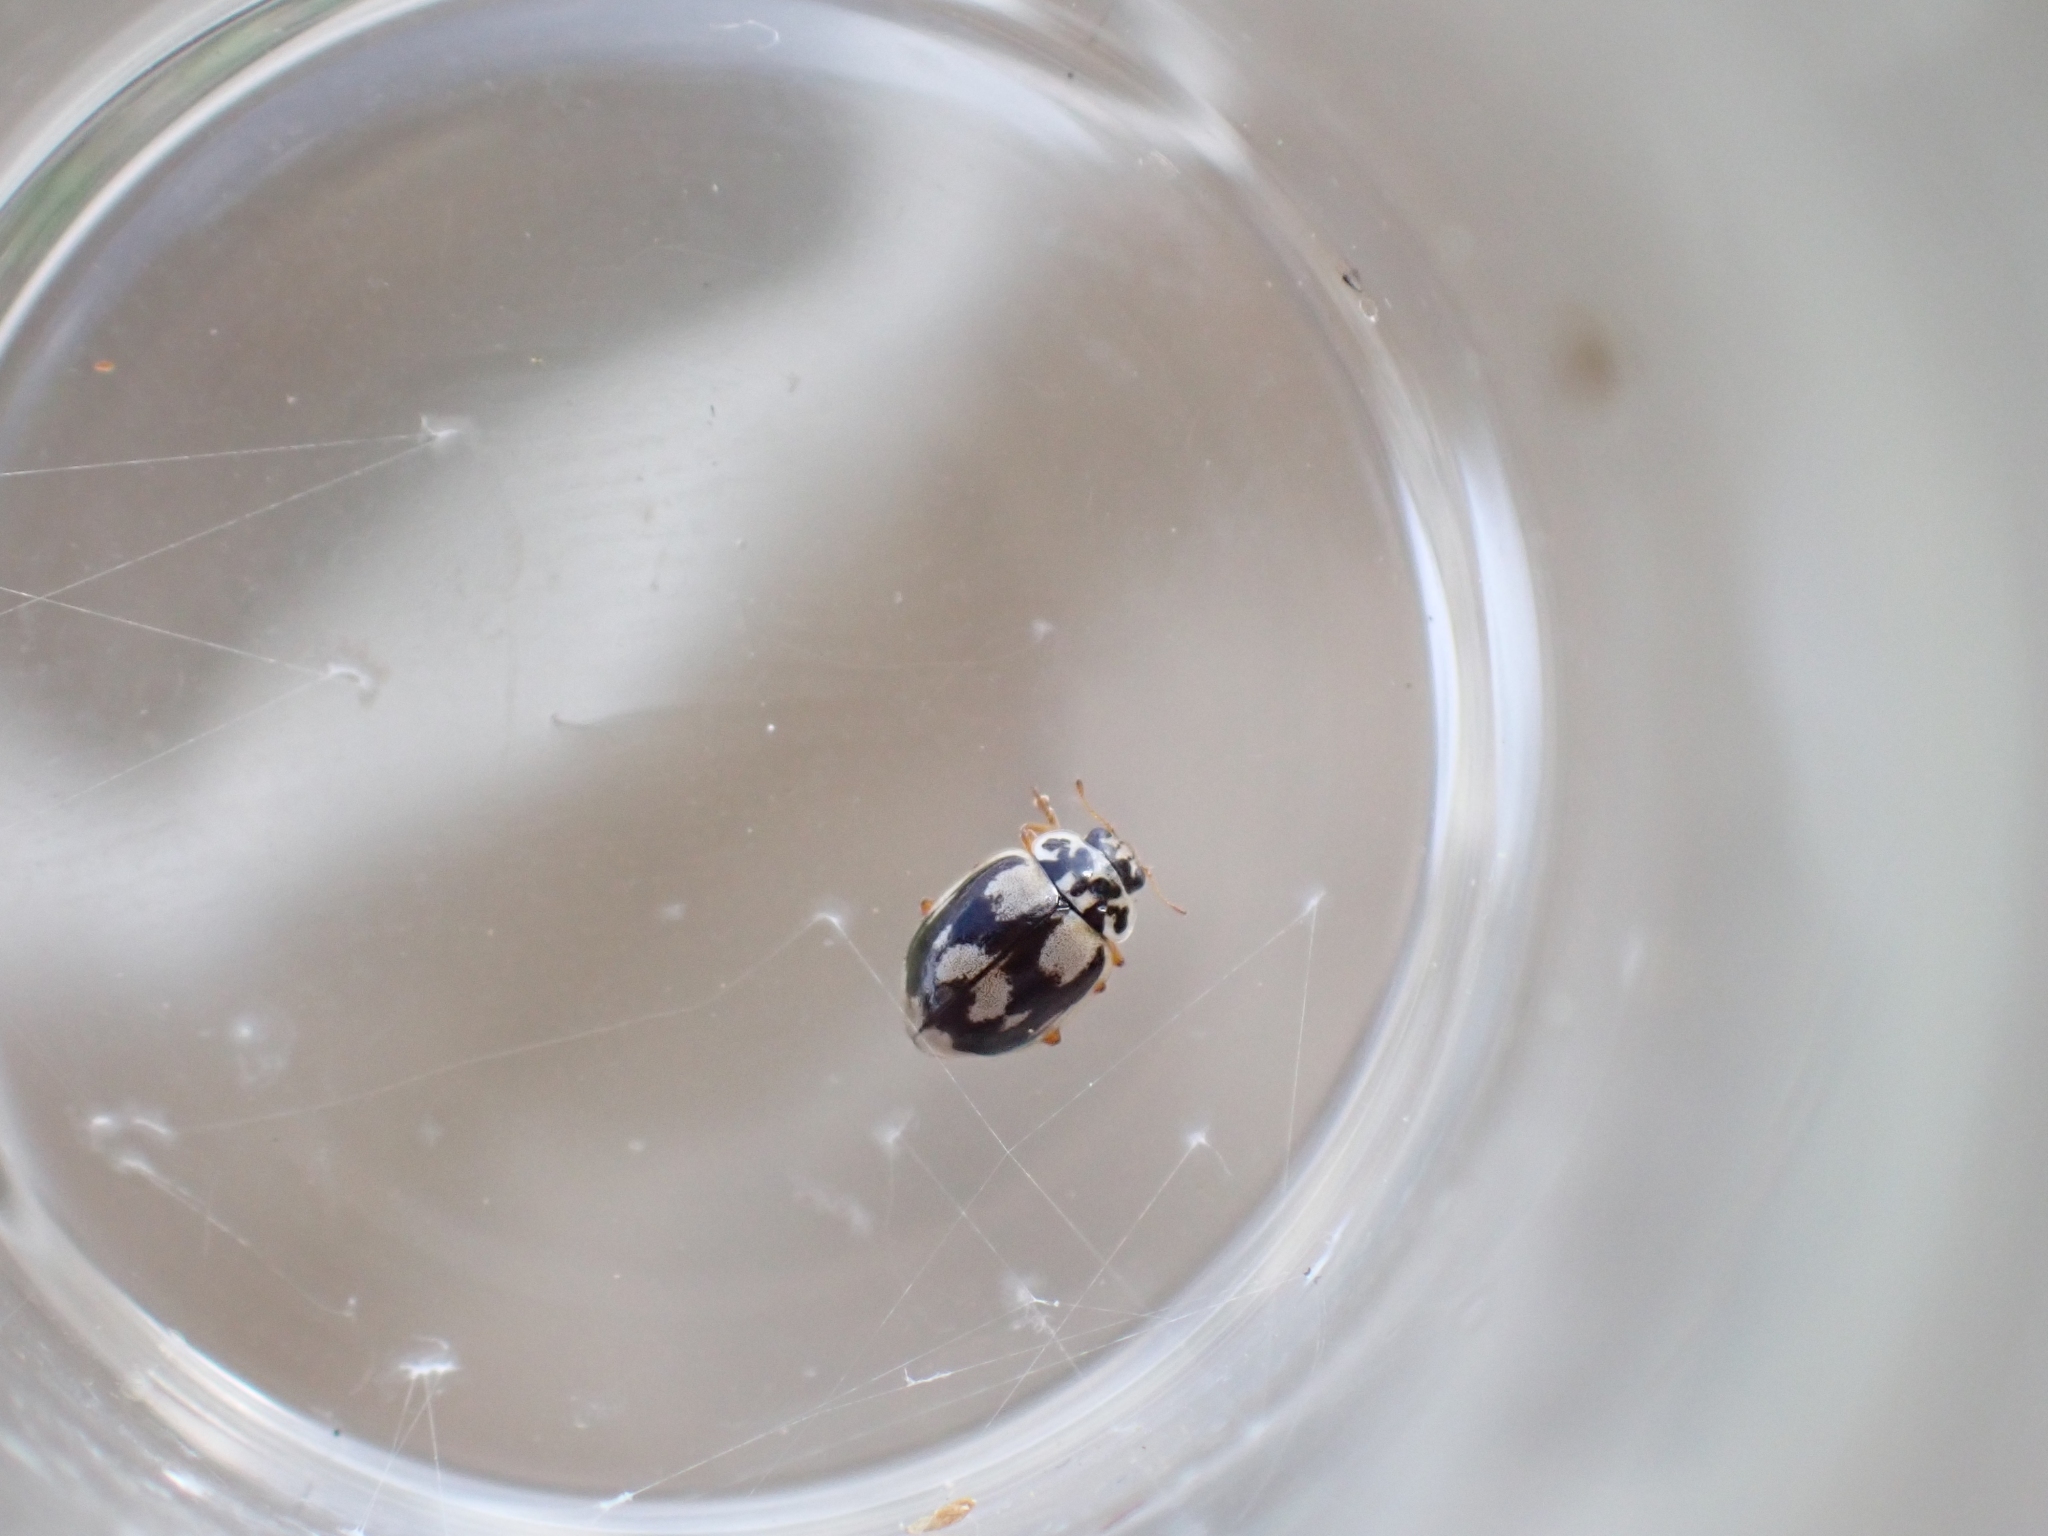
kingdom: Animalia
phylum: Arthropoda
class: Insecta
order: Coleoptera
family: Coccinellidae
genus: Mulsantina
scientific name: Mulsantina picta
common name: Painted ladybird
